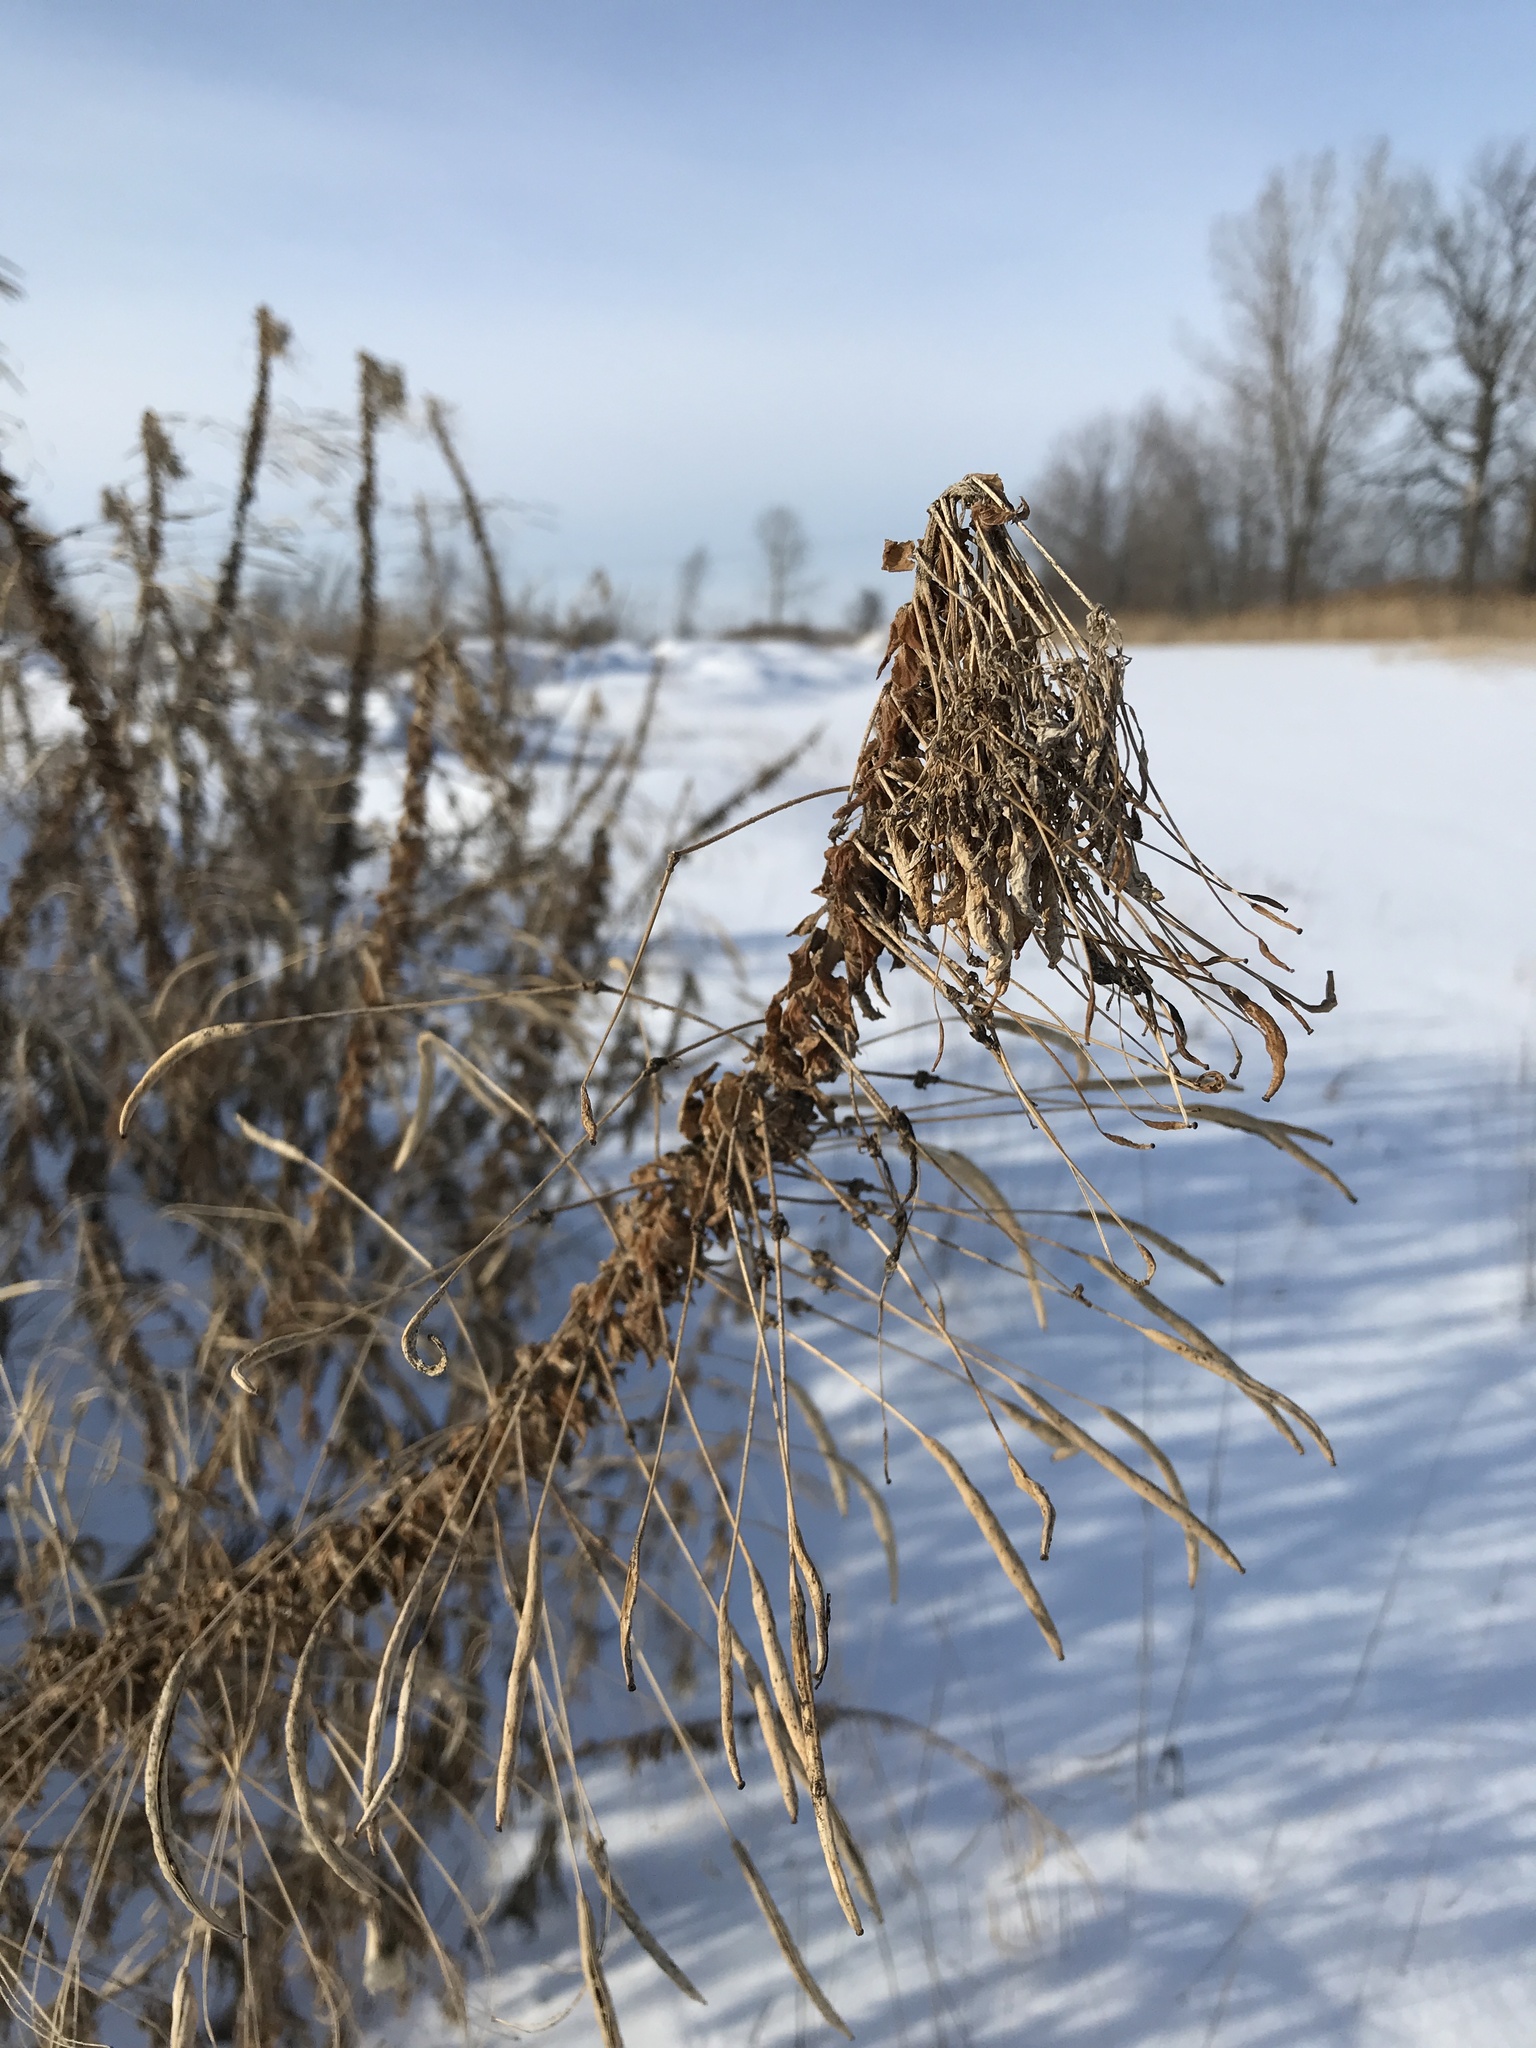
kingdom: Plantae
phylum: Tracheophyta
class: Magnoliopsida
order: Brassicales
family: Cleomaceae
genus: Cleome
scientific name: Cleome
